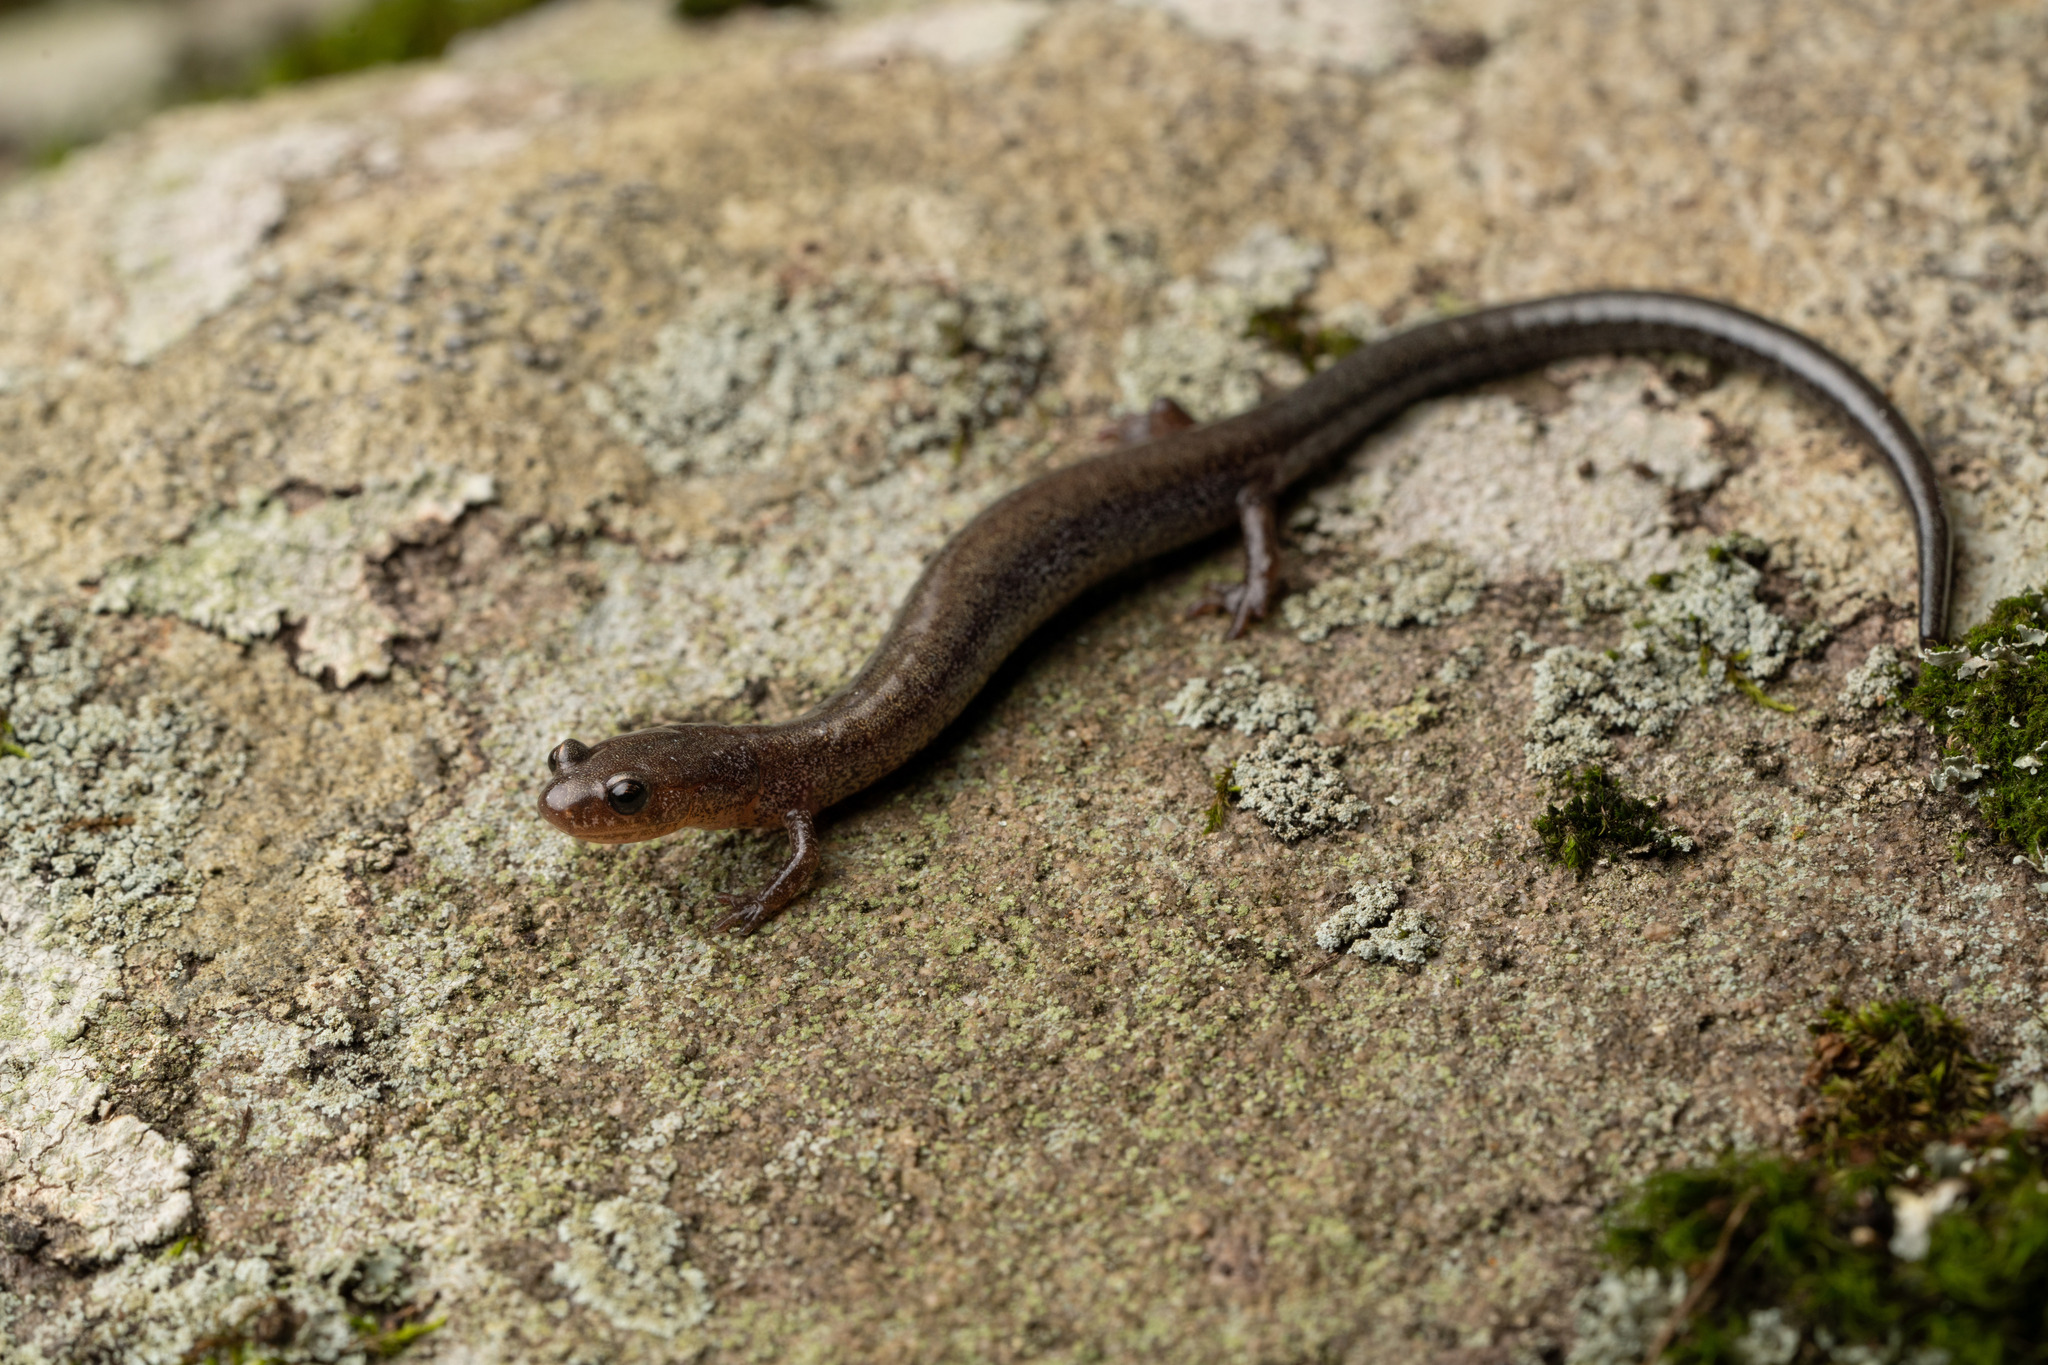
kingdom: Animalia
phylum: Chordata
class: Amphibia
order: Caudata
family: Plethodontidae
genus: Plethodon
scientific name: Plethodon cinereus
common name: Redback salamander
